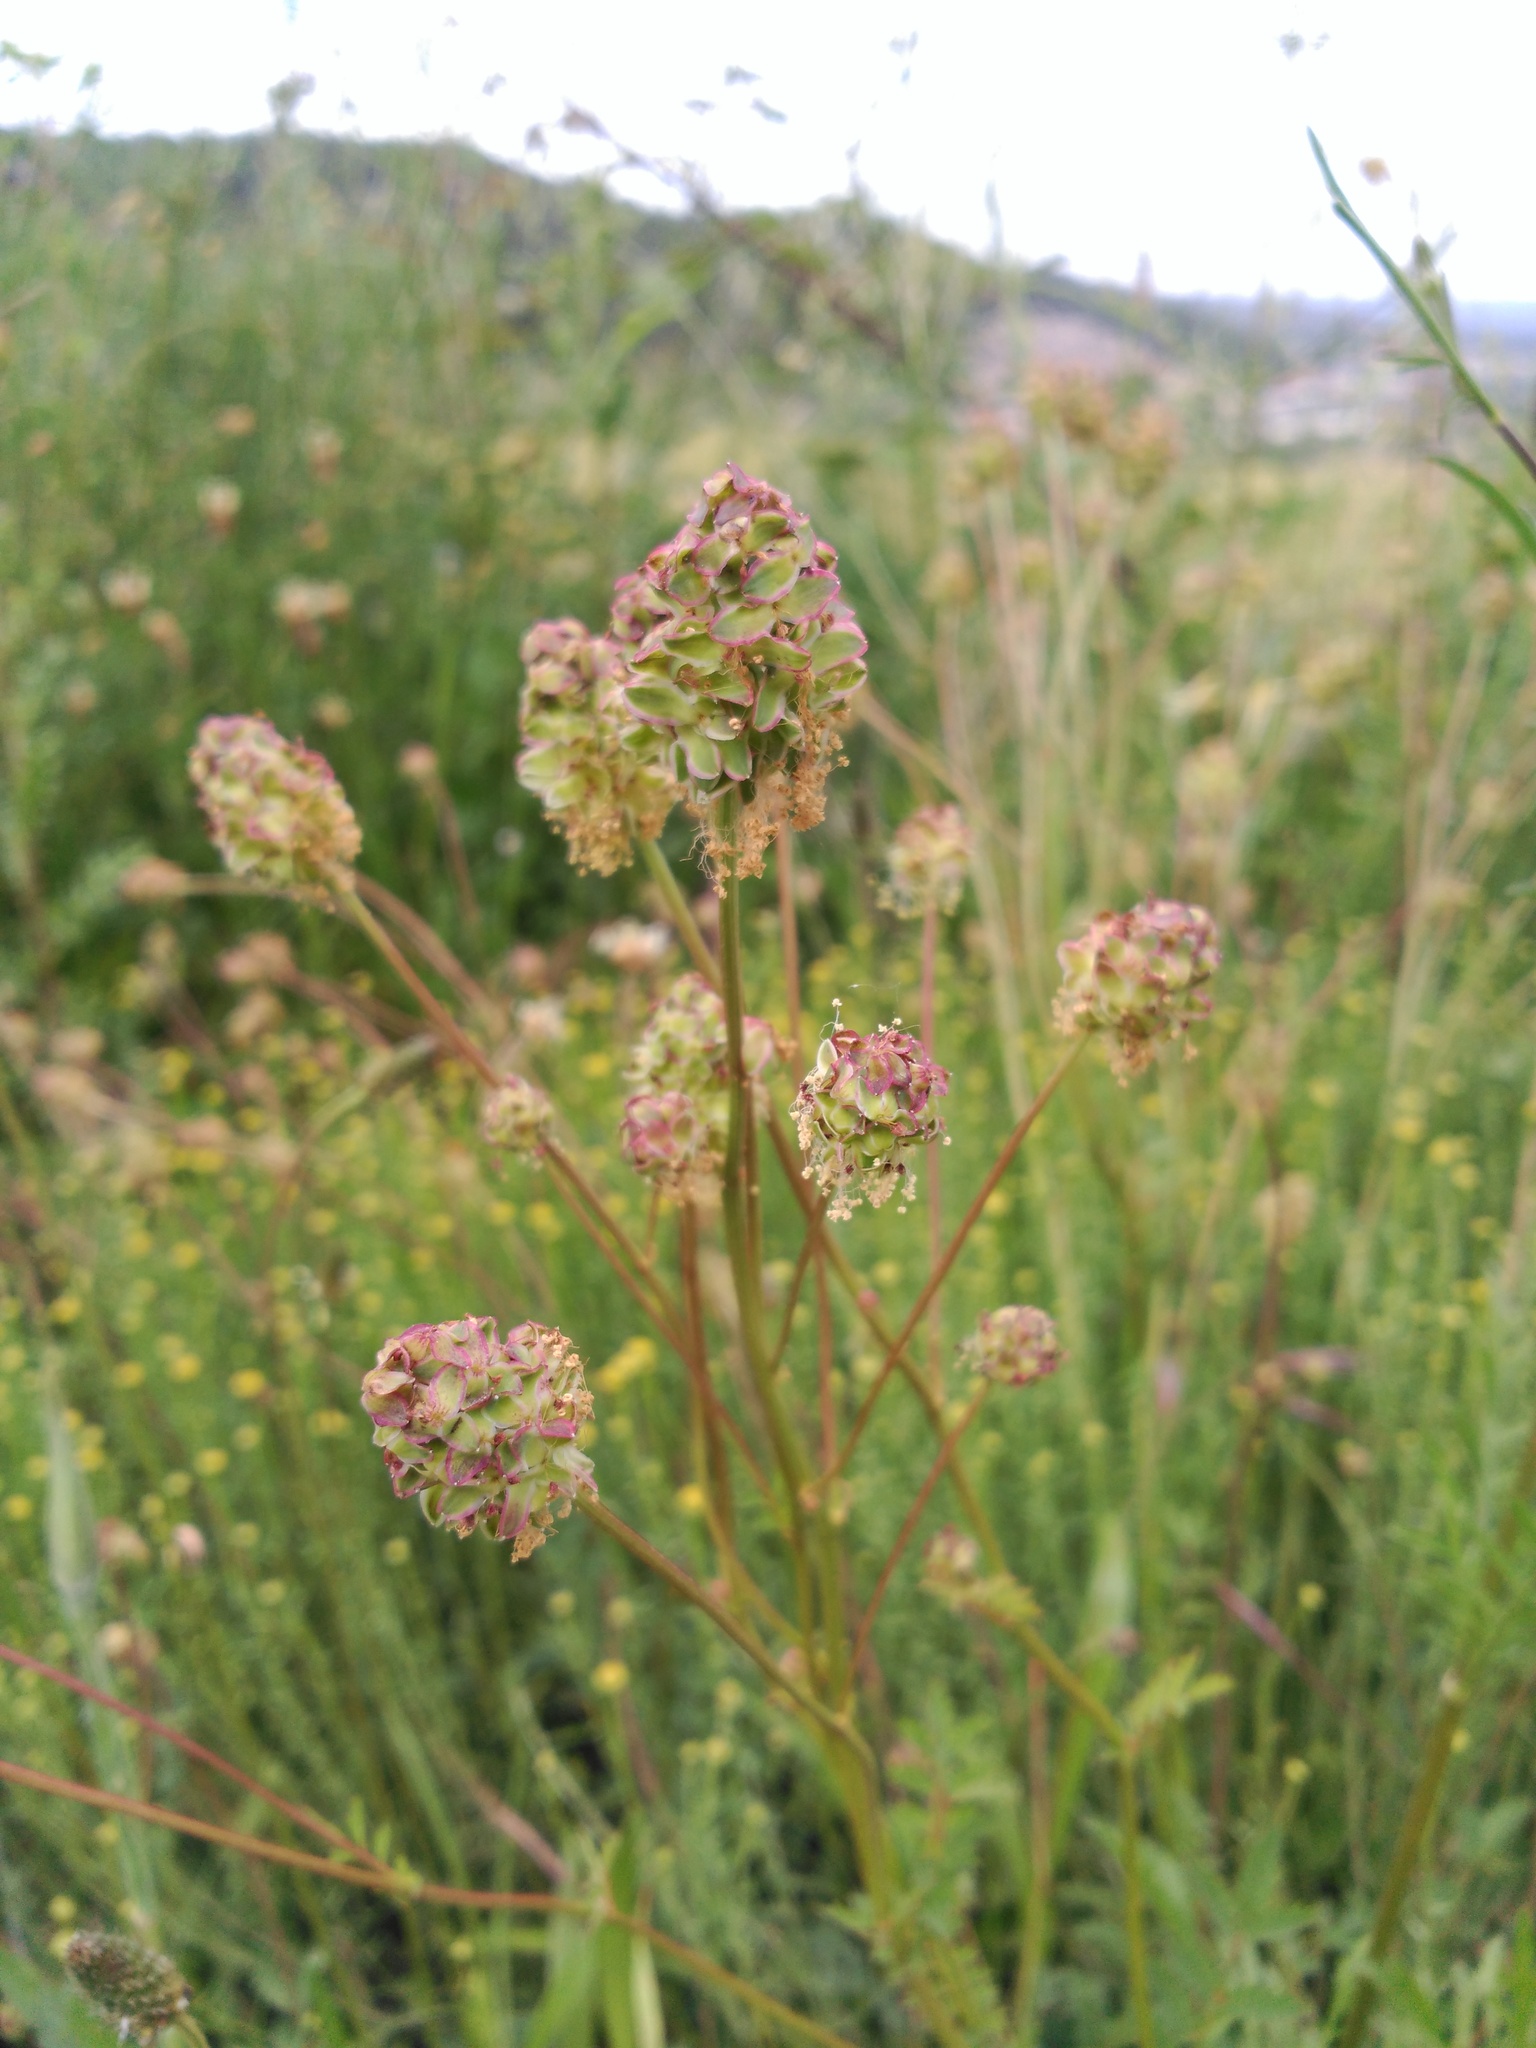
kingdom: Plantae
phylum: Tracheophyta
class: Magnoliopsida
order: Rosales
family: Rosaceae
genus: Poterium
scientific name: Poterium sanguisorba
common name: Salad burnet
